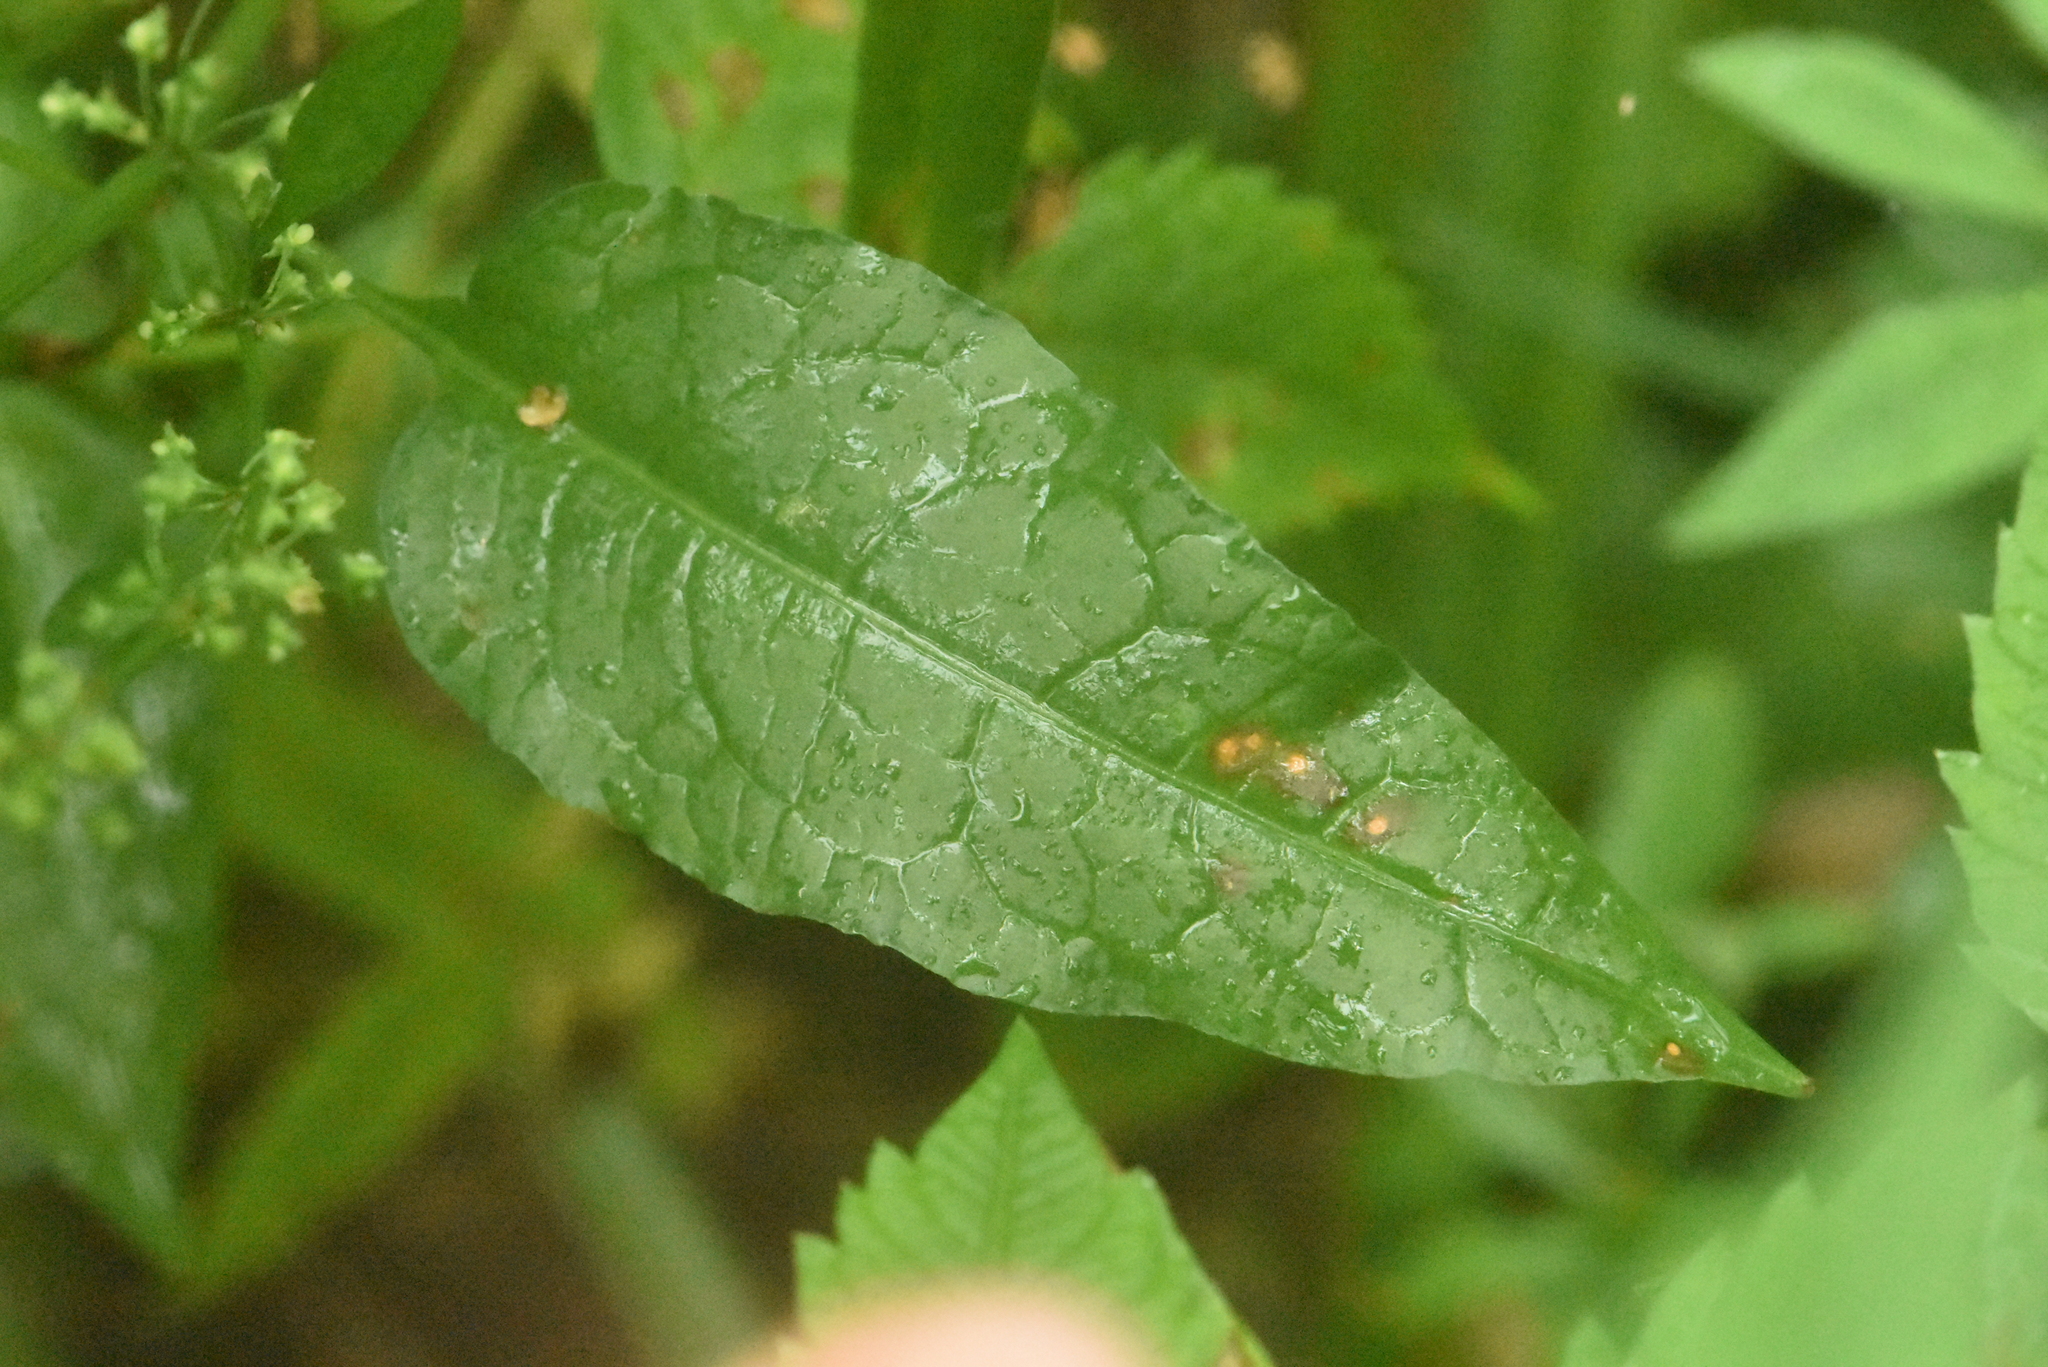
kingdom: Plantae
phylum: Tracheophyta
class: Magnoliopsida
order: Caryophyllales
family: Polygonaceae
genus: Rumex
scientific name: Rumex obtusifolius
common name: Bitter dock
